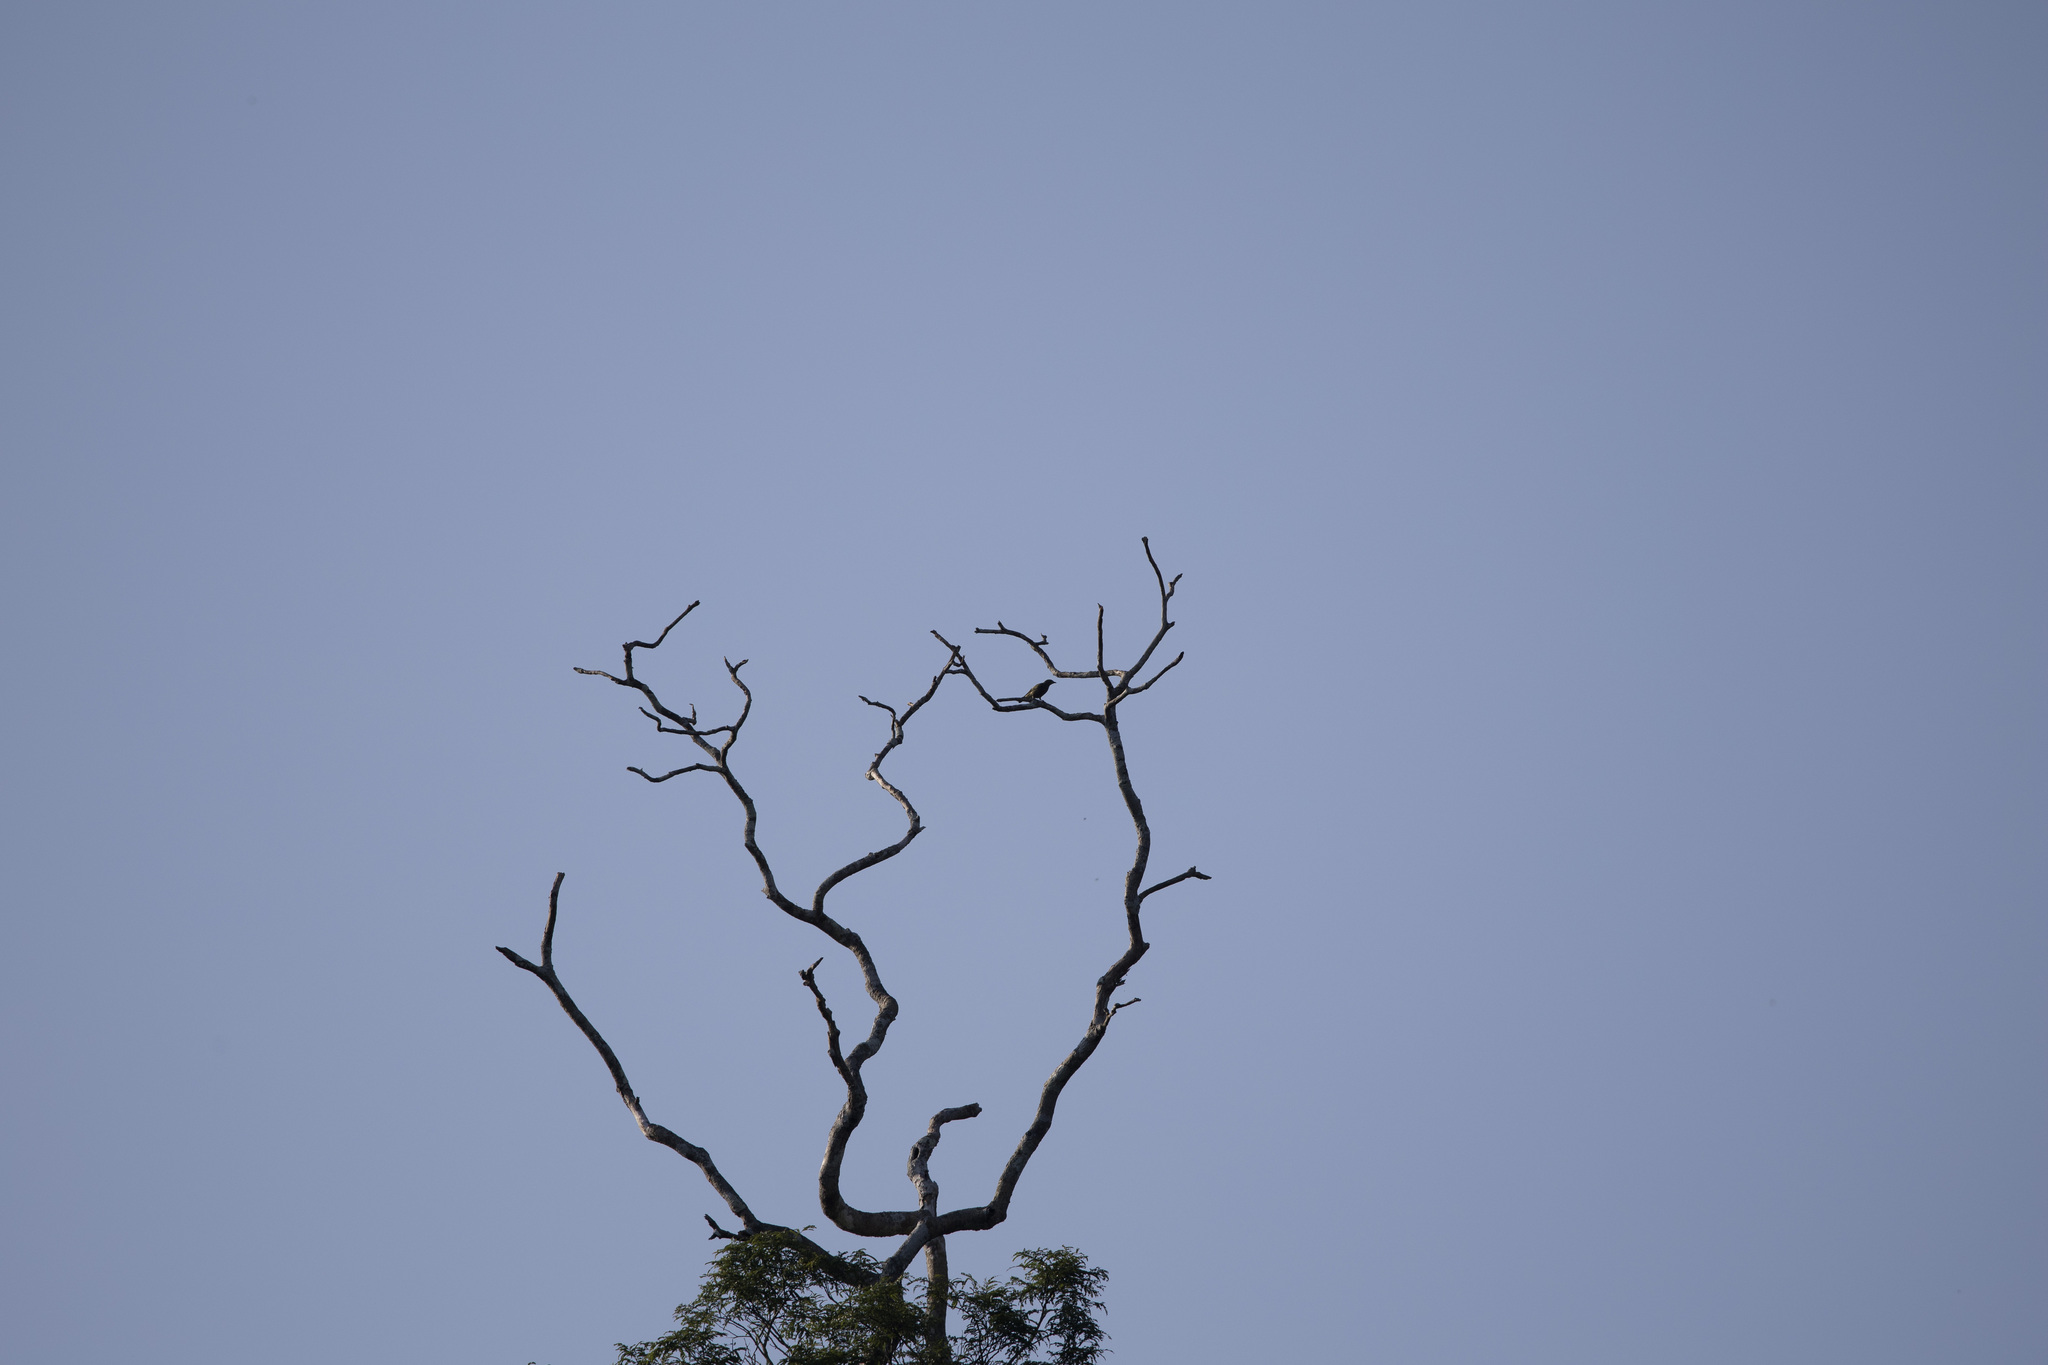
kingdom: Animalia
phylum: Chordata
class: Aves
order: Passeriformes
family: Thraupidae
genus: Thraupis
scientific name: Thraupis palmarum
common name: Palm tanager
